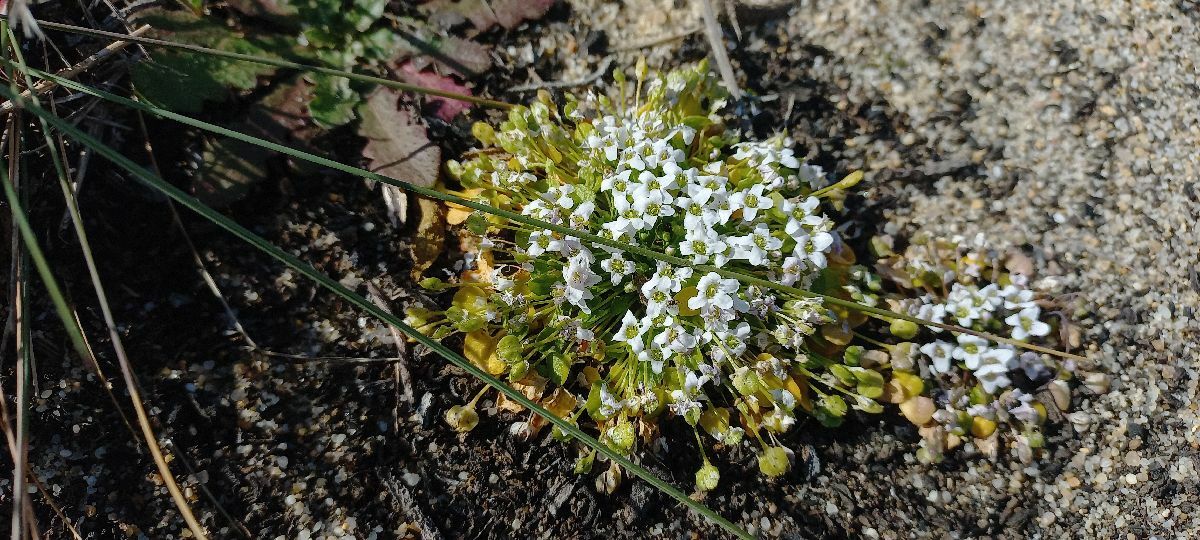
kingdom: Plantae
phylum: Tracheophyta
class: Magnoliopsida
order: Brassicales
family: Brassicaceae
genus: Ionopsidium
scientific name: Ionopsidium acaule
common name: False diamondflower
